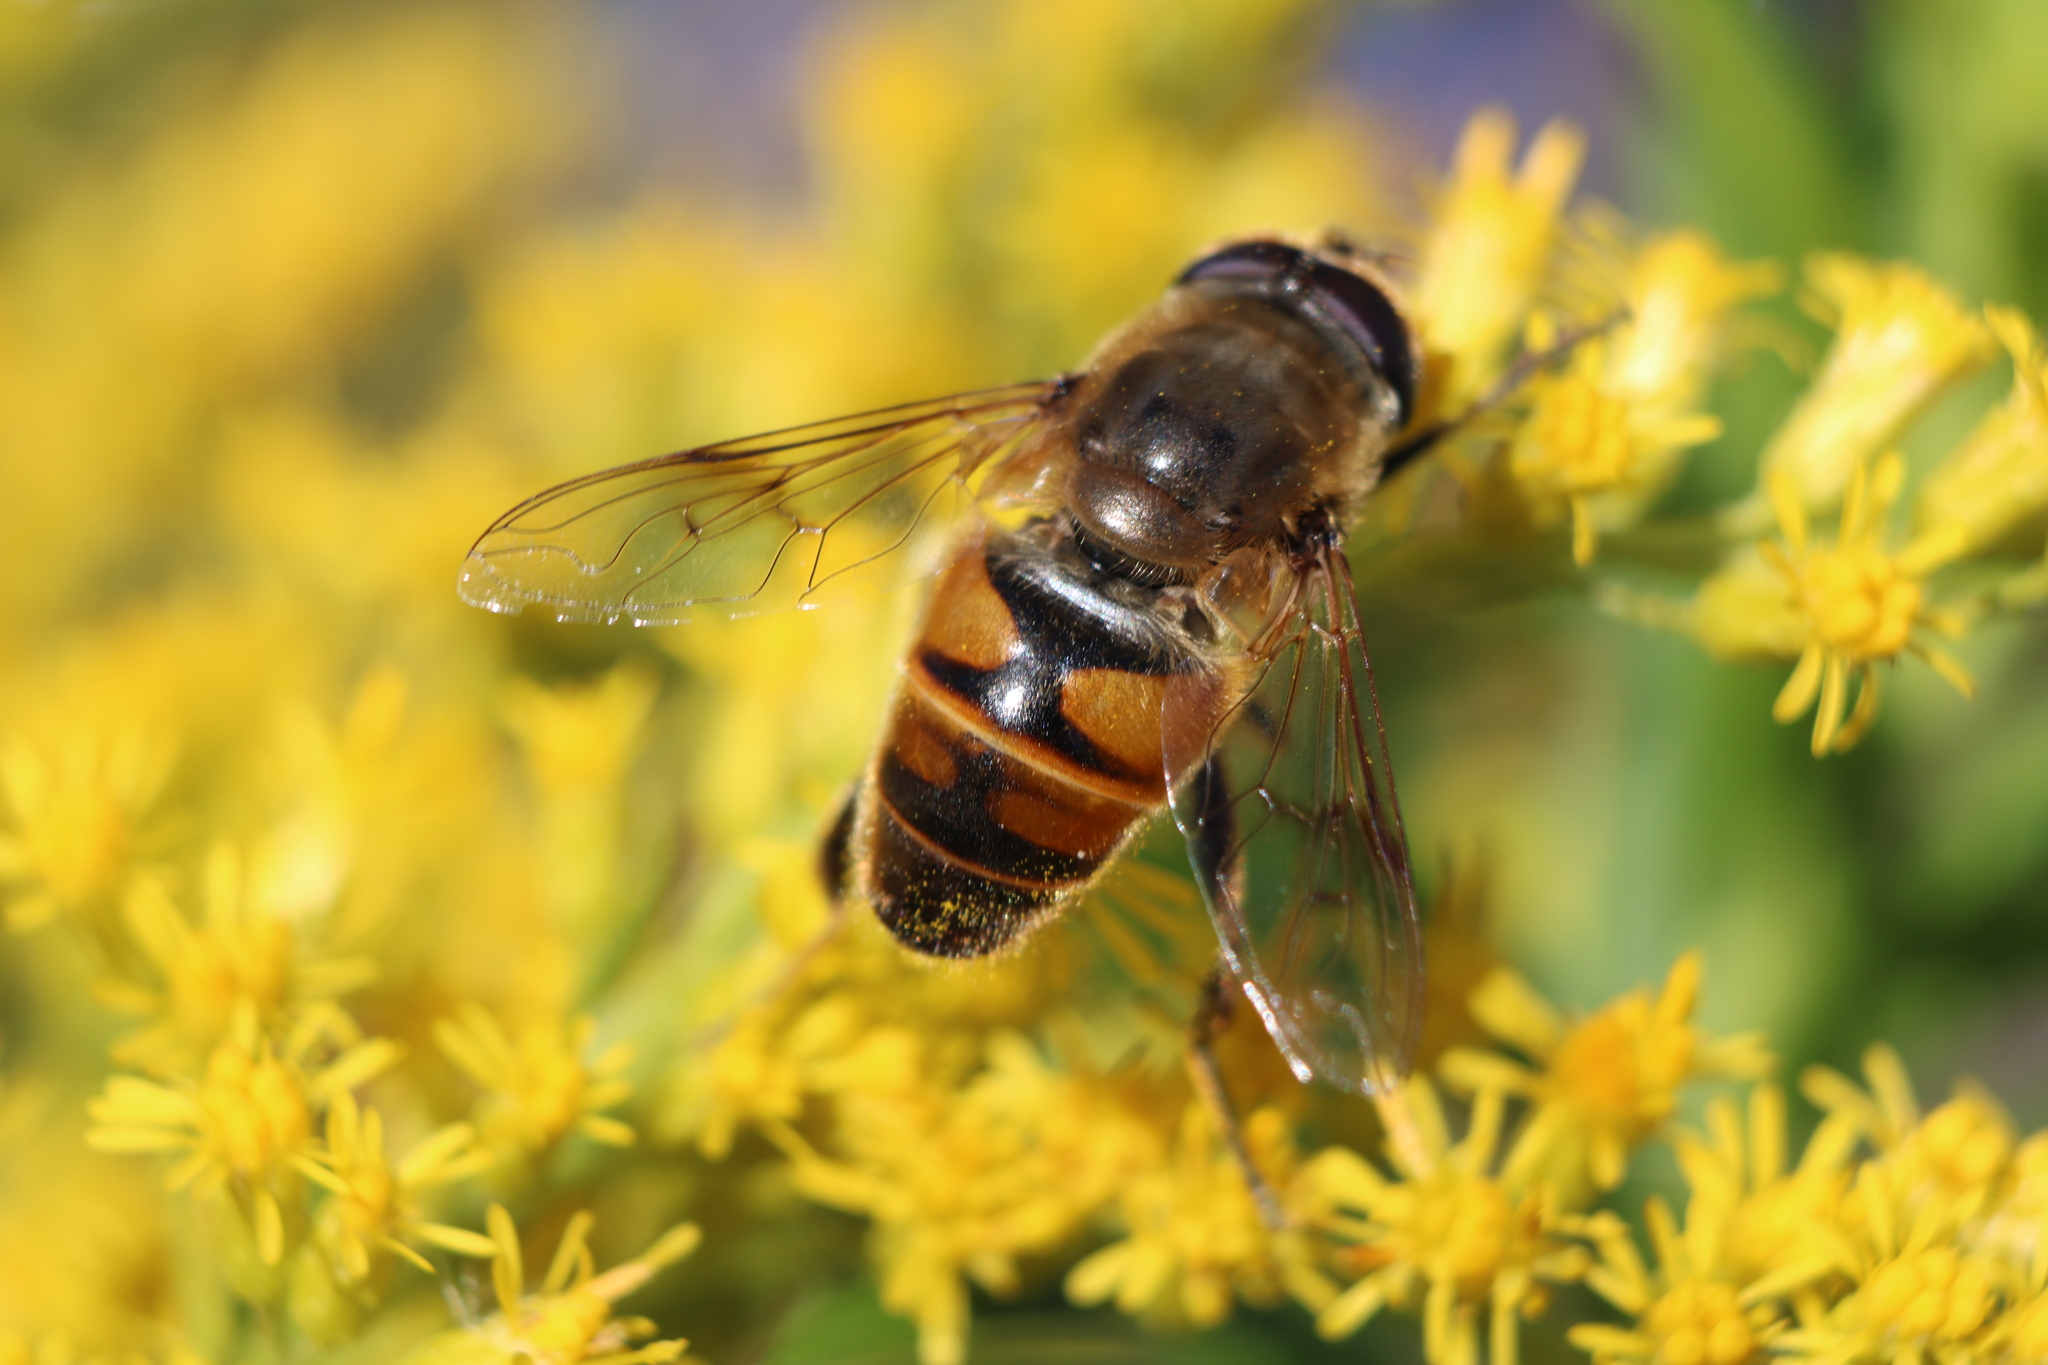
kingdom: Animalia
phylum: Arthropoda
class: Insecta
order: Diptera
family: Syrphidae
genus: Eristalis
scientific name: Eristalis tenax
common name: Drone fly
